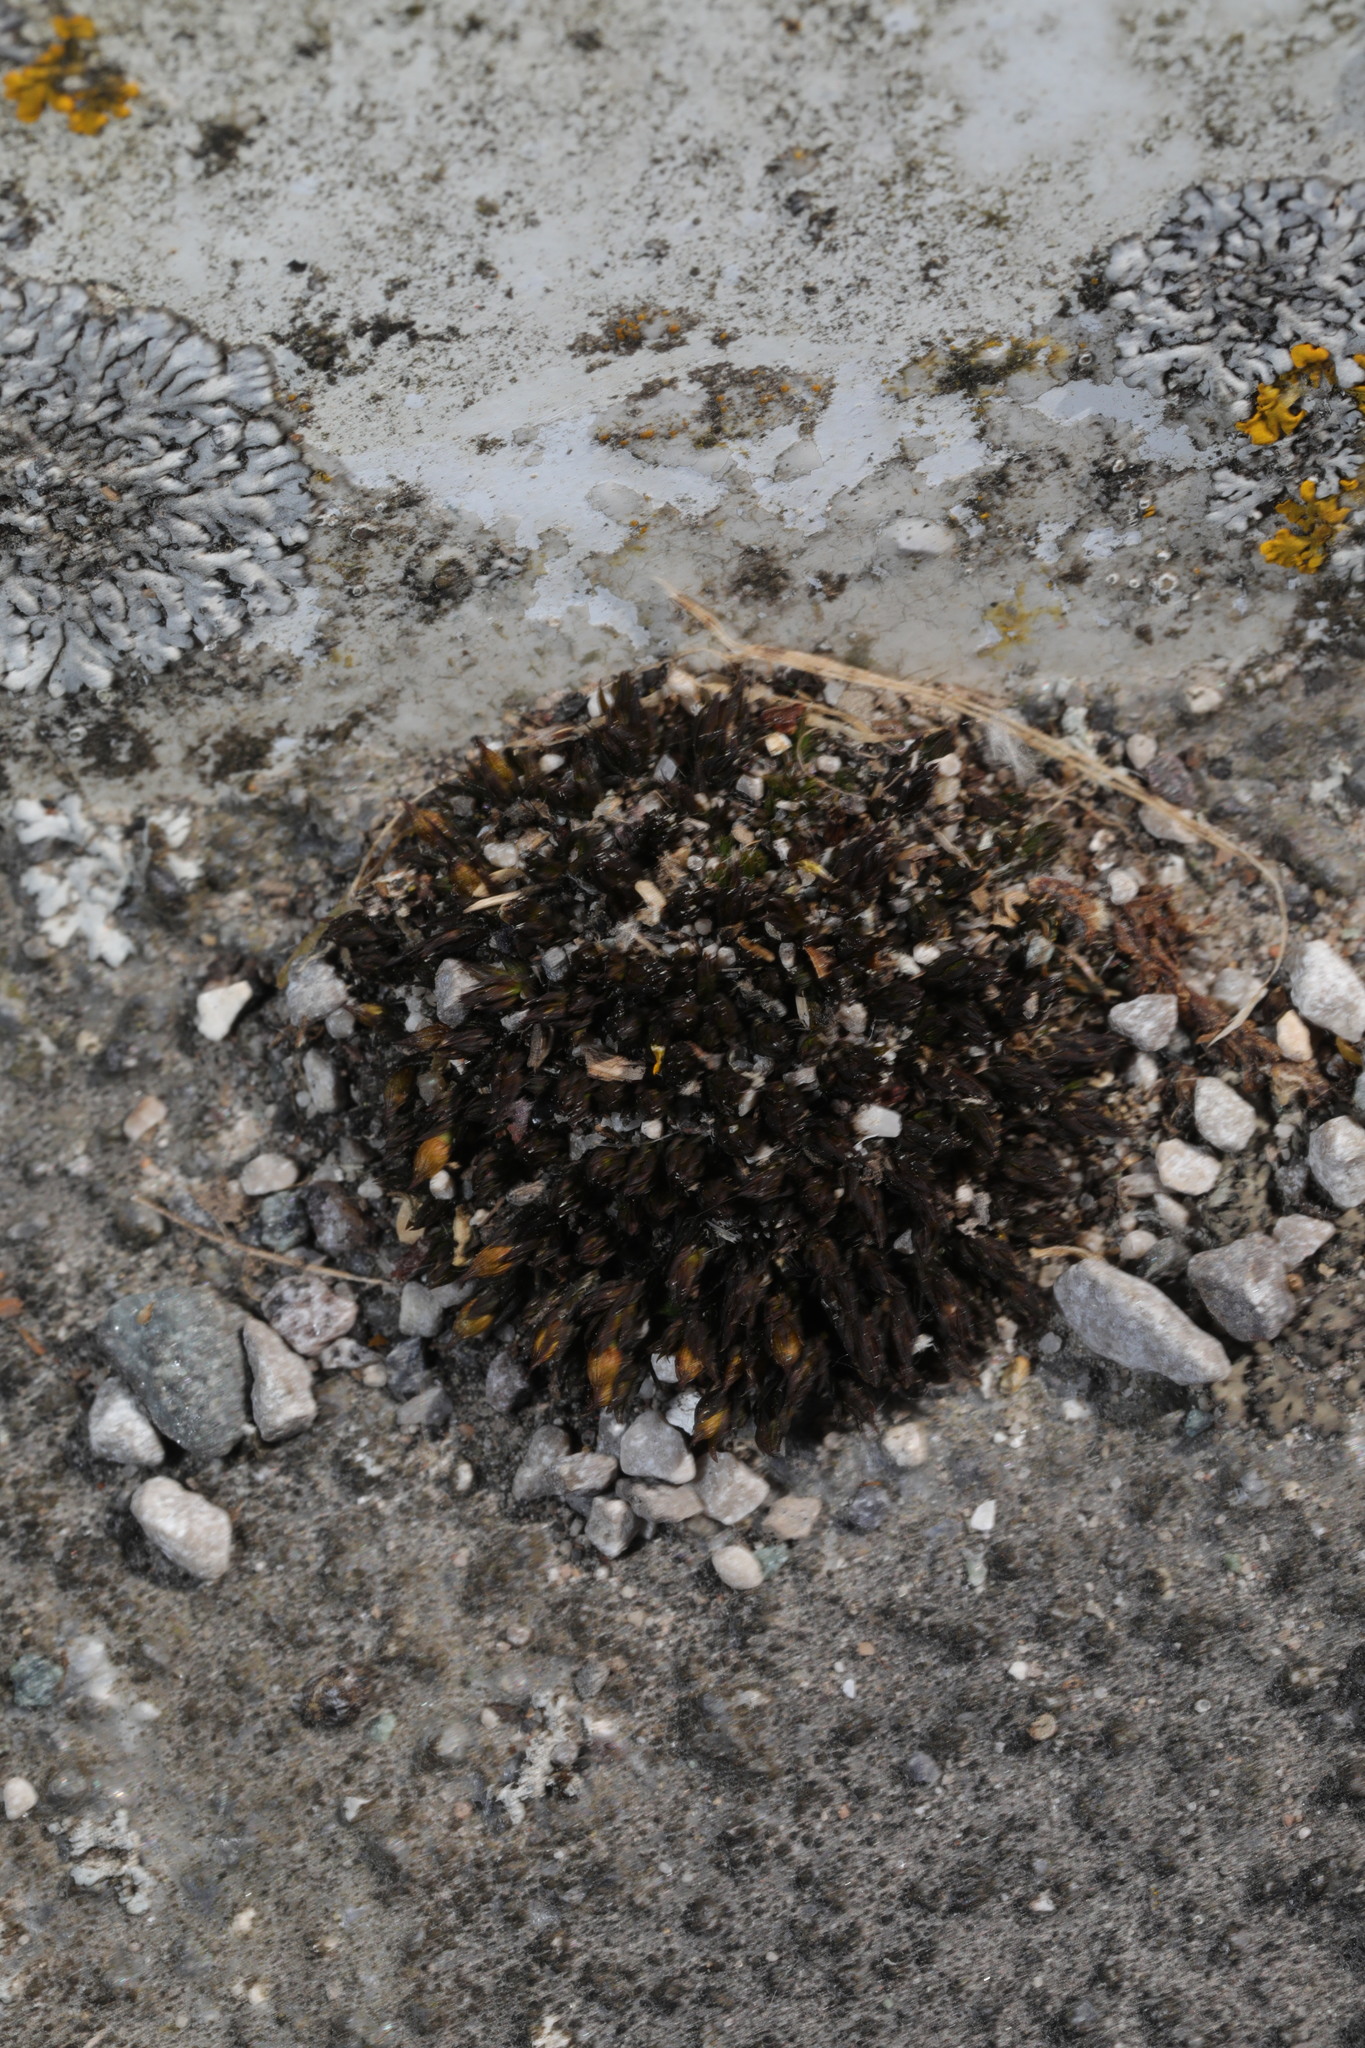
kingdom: Plantae
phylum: Bryophyta
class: Bryopsida
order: Orthotrichales
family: Orthotrichaceae
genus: Orthotrichum
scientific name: Orthotrichum cupulatum
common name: Hooded bristle-moss
